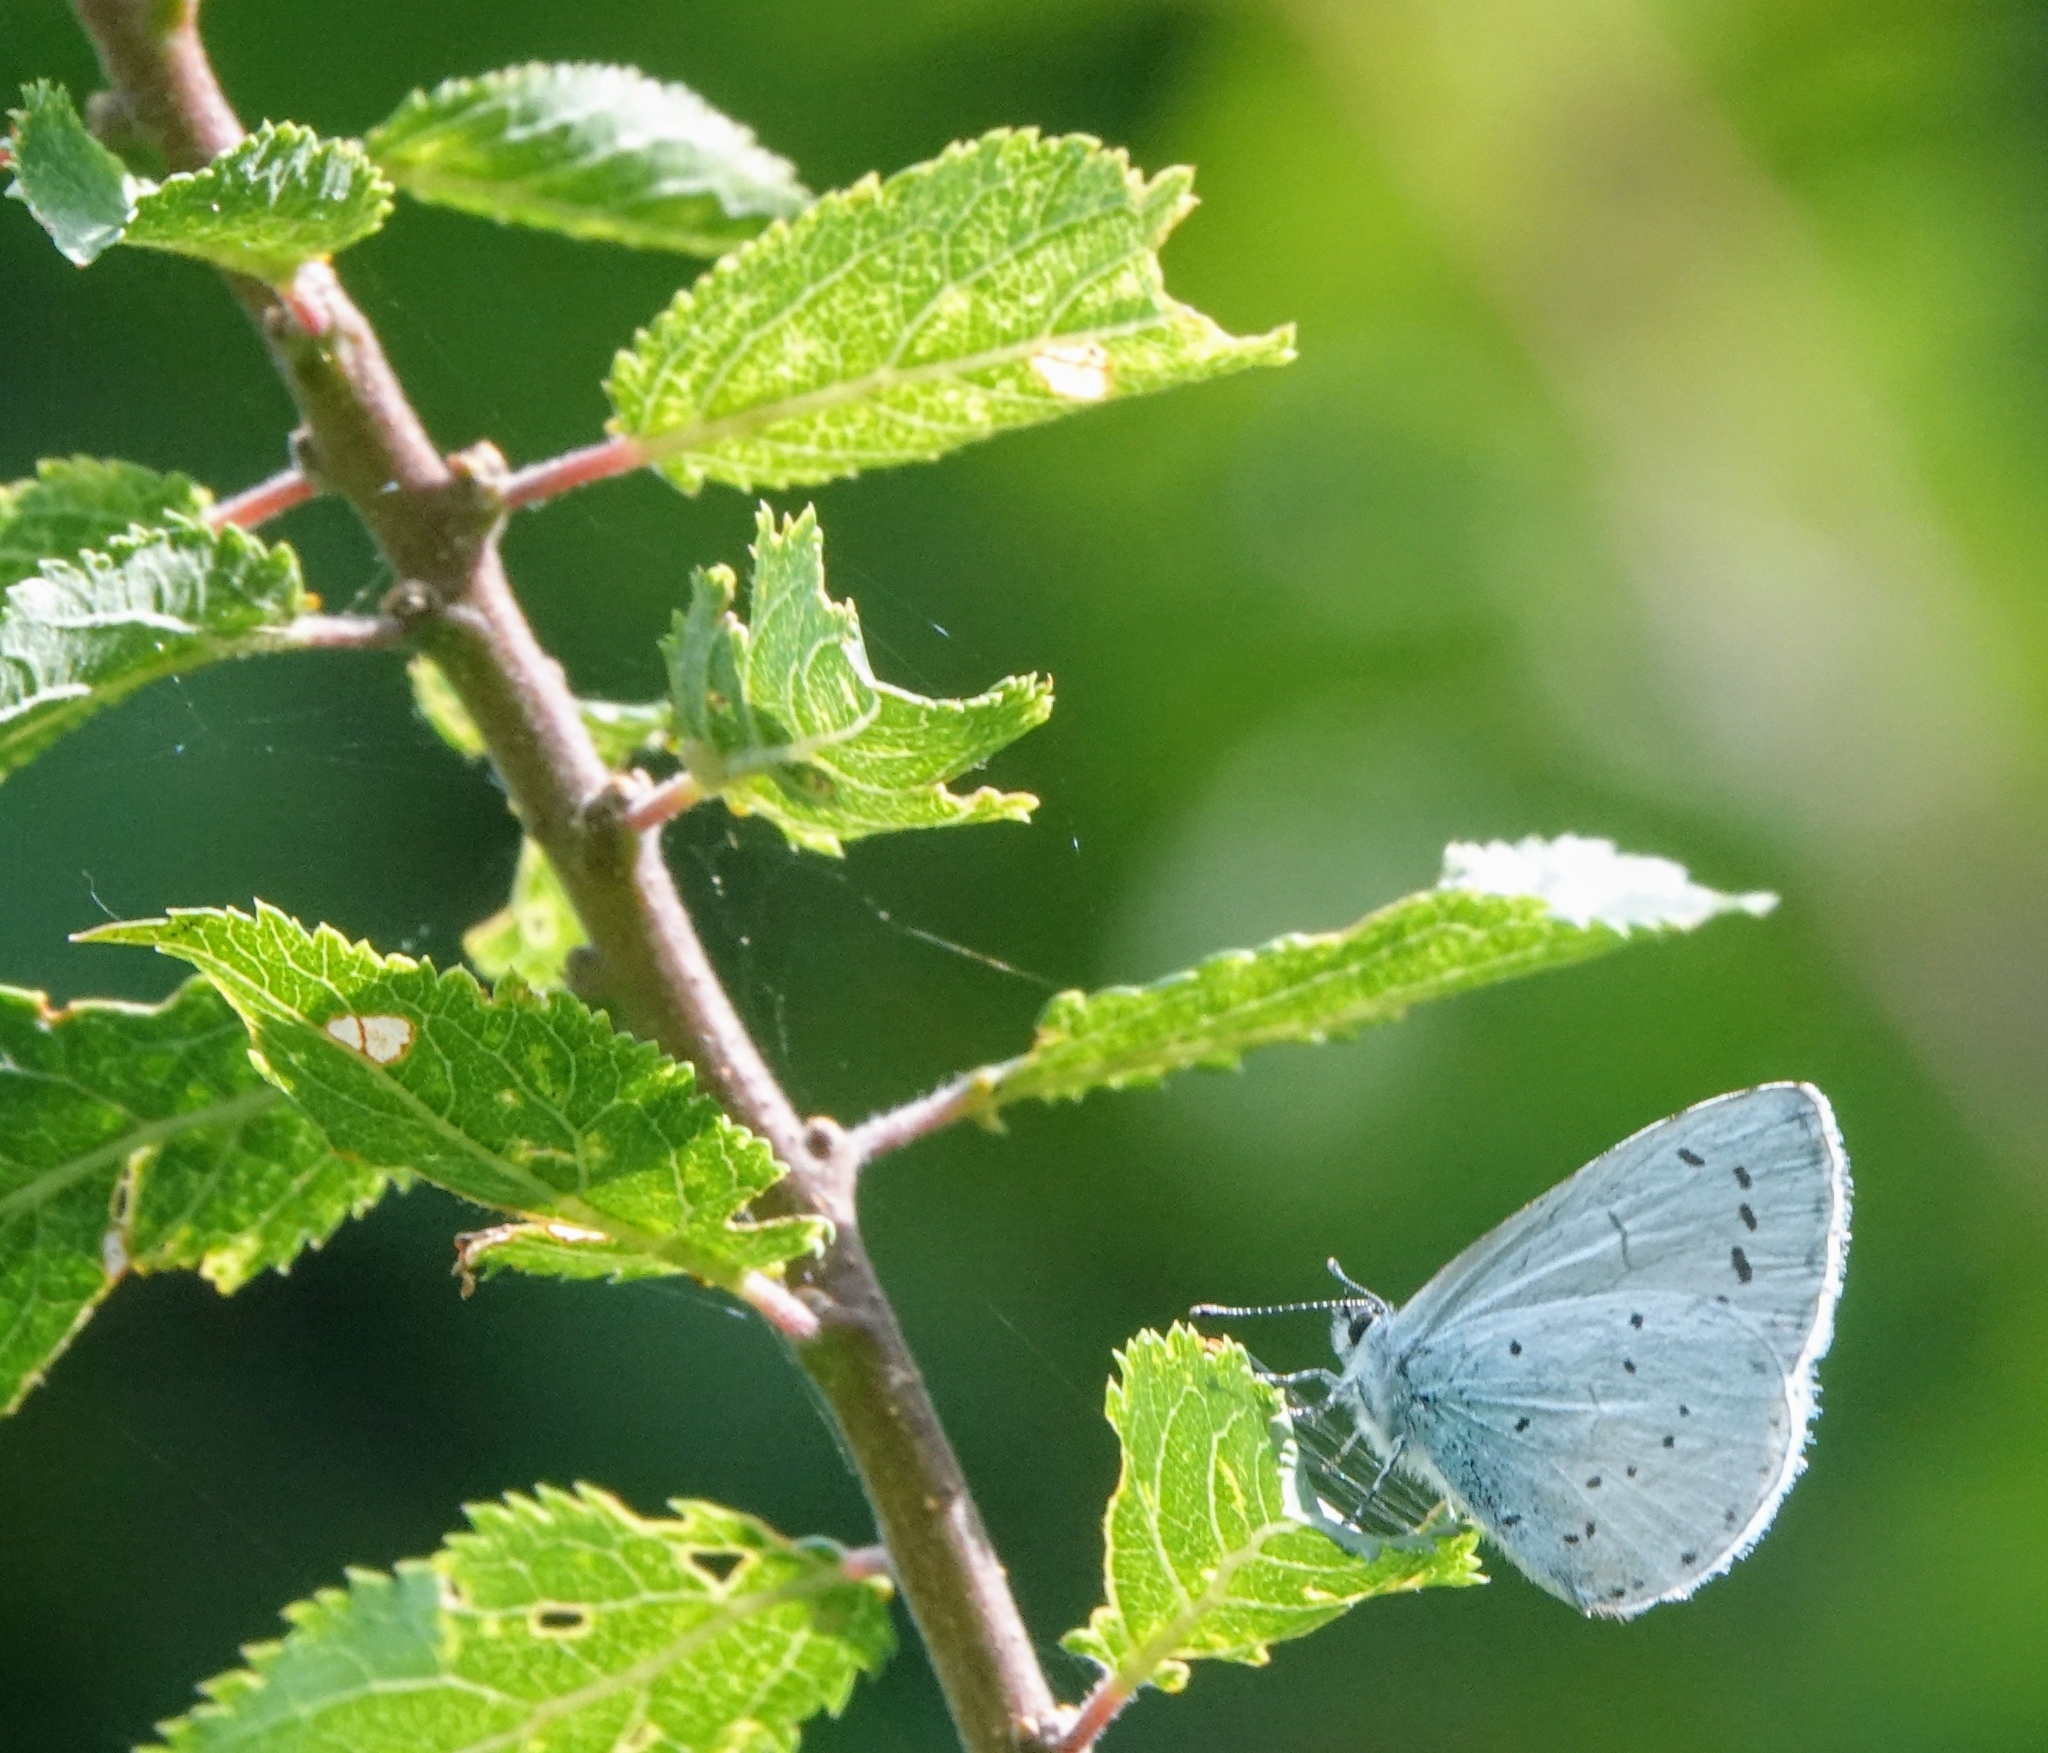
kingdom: Animalia
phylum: Arthropoda
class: Insecta
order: Lepidoptera
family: Lycaenidae
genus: Celastrina
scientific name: Celastrina argiolus
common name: Holly blue
